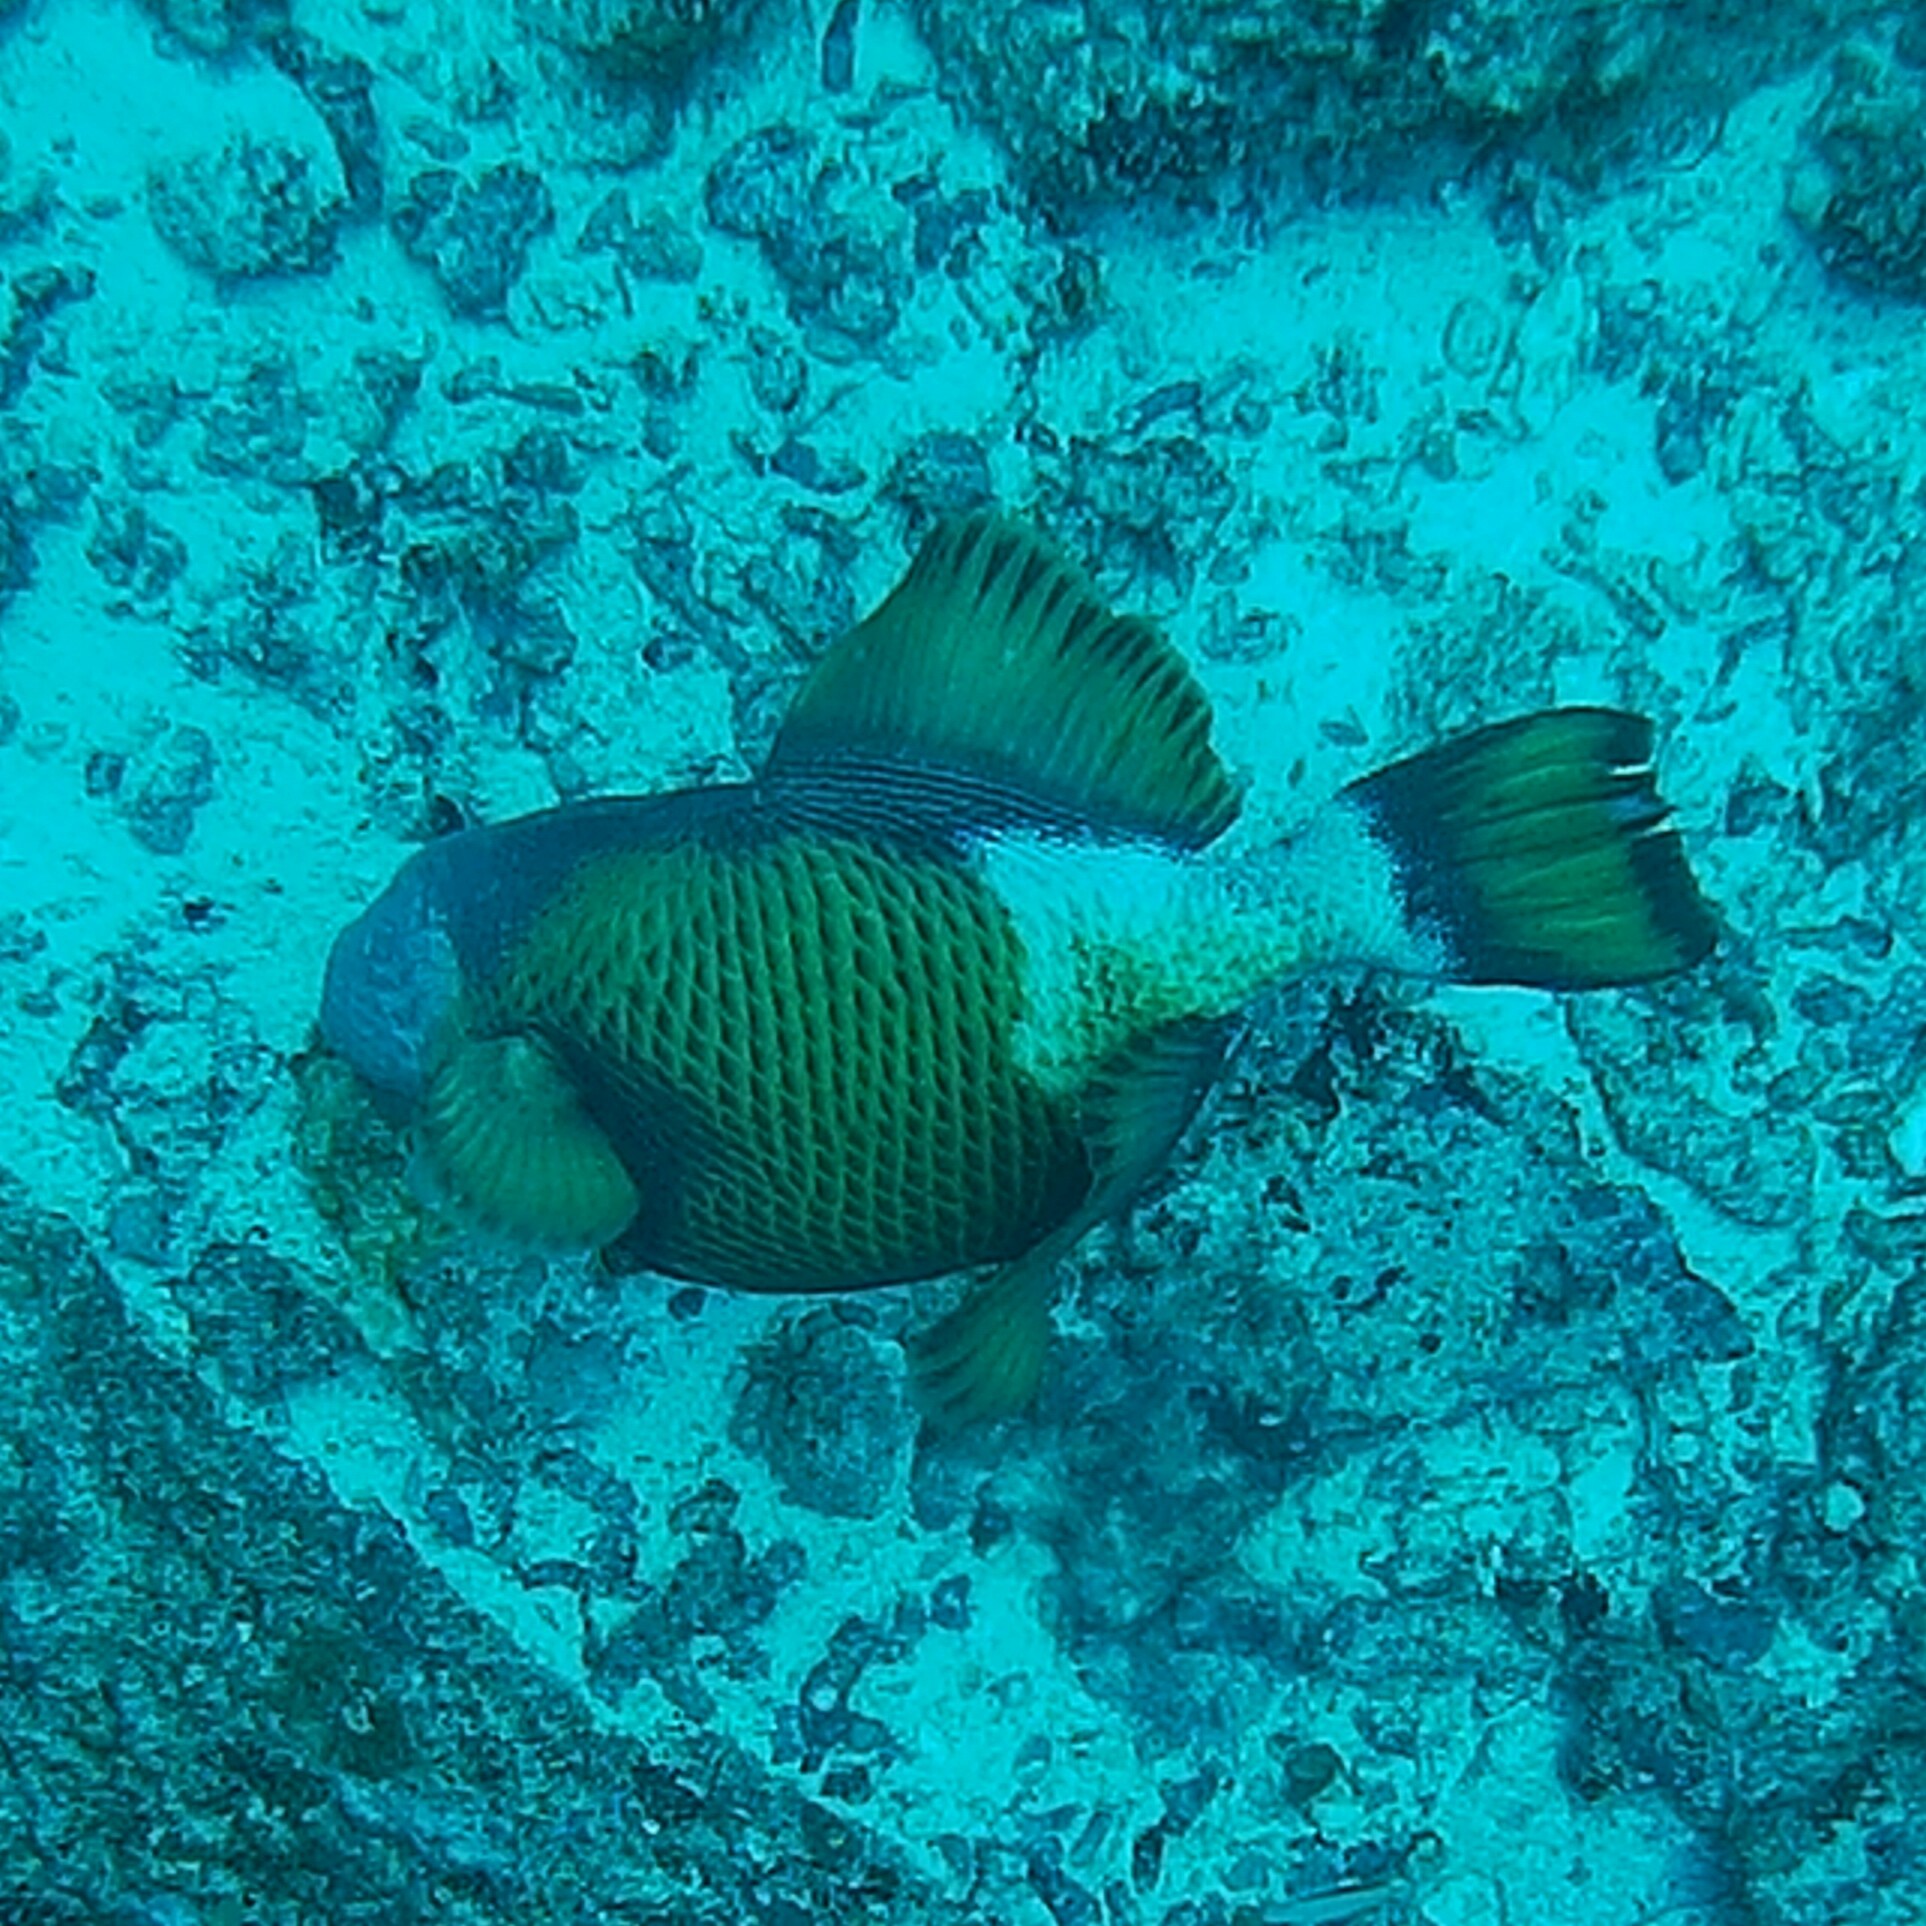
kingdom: Animalia
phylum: Chordata
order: Tetraodontiformes
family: Balistidae
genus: Balistoides
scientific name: Balistoides viridescens
